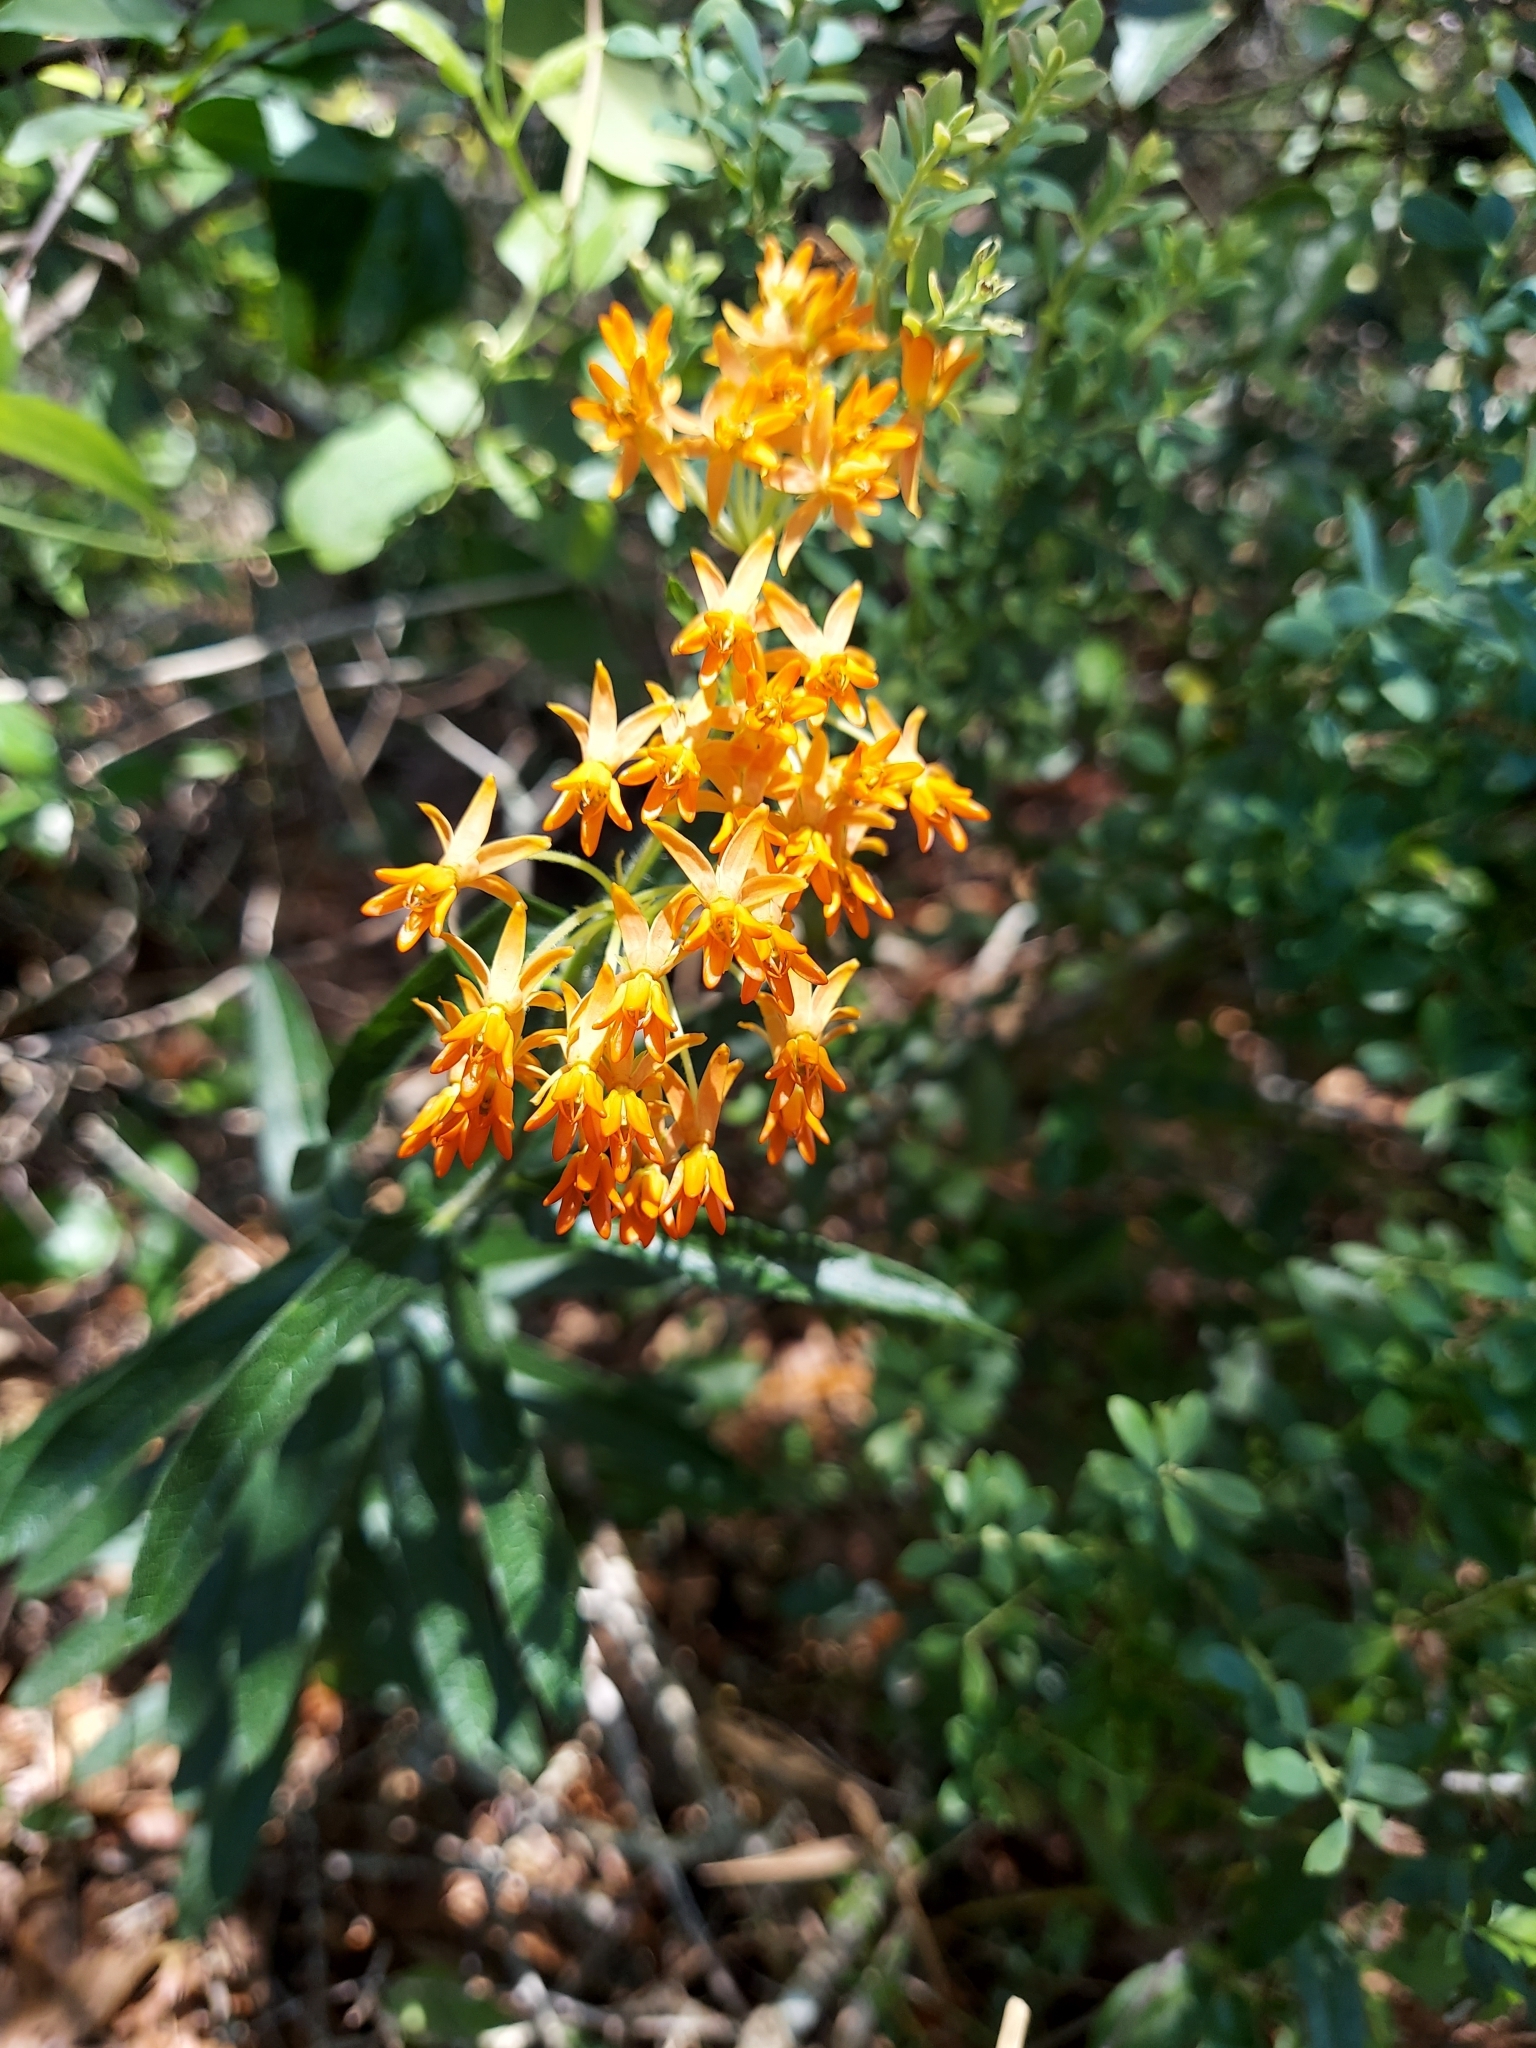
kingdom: Plantae
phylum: Tracheophyta
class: Magnoliopsida
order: Gentianales
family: Apocynaceae
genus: Asclepias
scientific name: Asclepias tuberosa
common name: Butterfly milkweed
